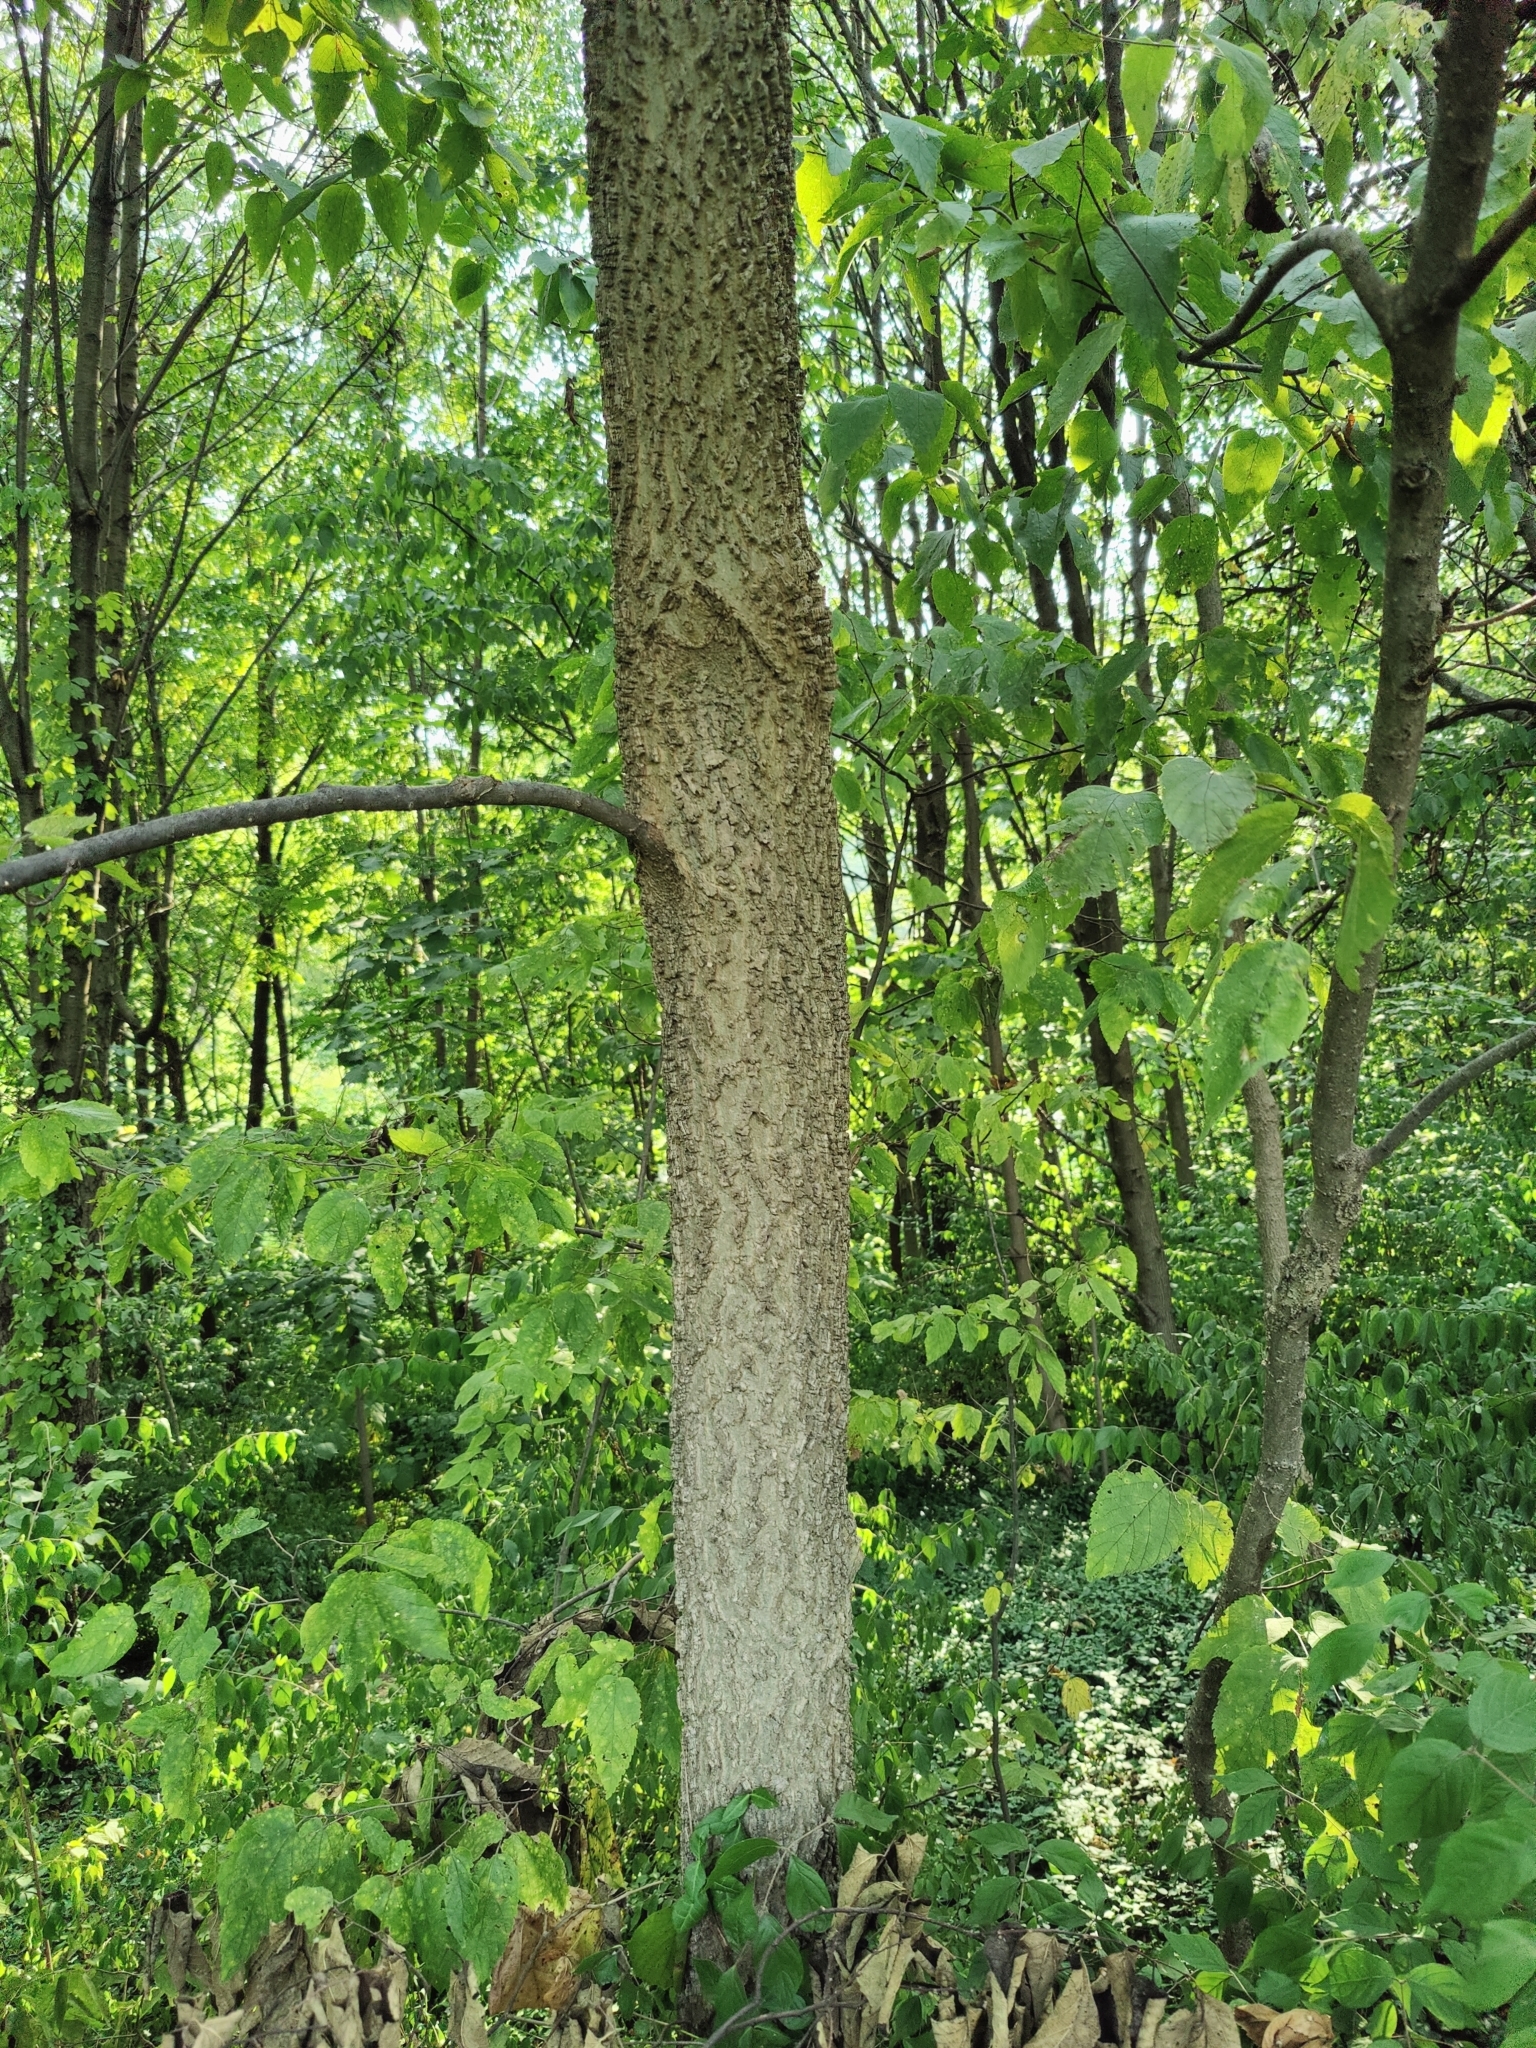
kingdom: Plantae
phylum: Tracheophyta
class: Magnoliopsida
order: Rosales
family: Cannabaceae
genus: Celtis
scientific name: Celtis occidentalis
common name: Common hackberry
